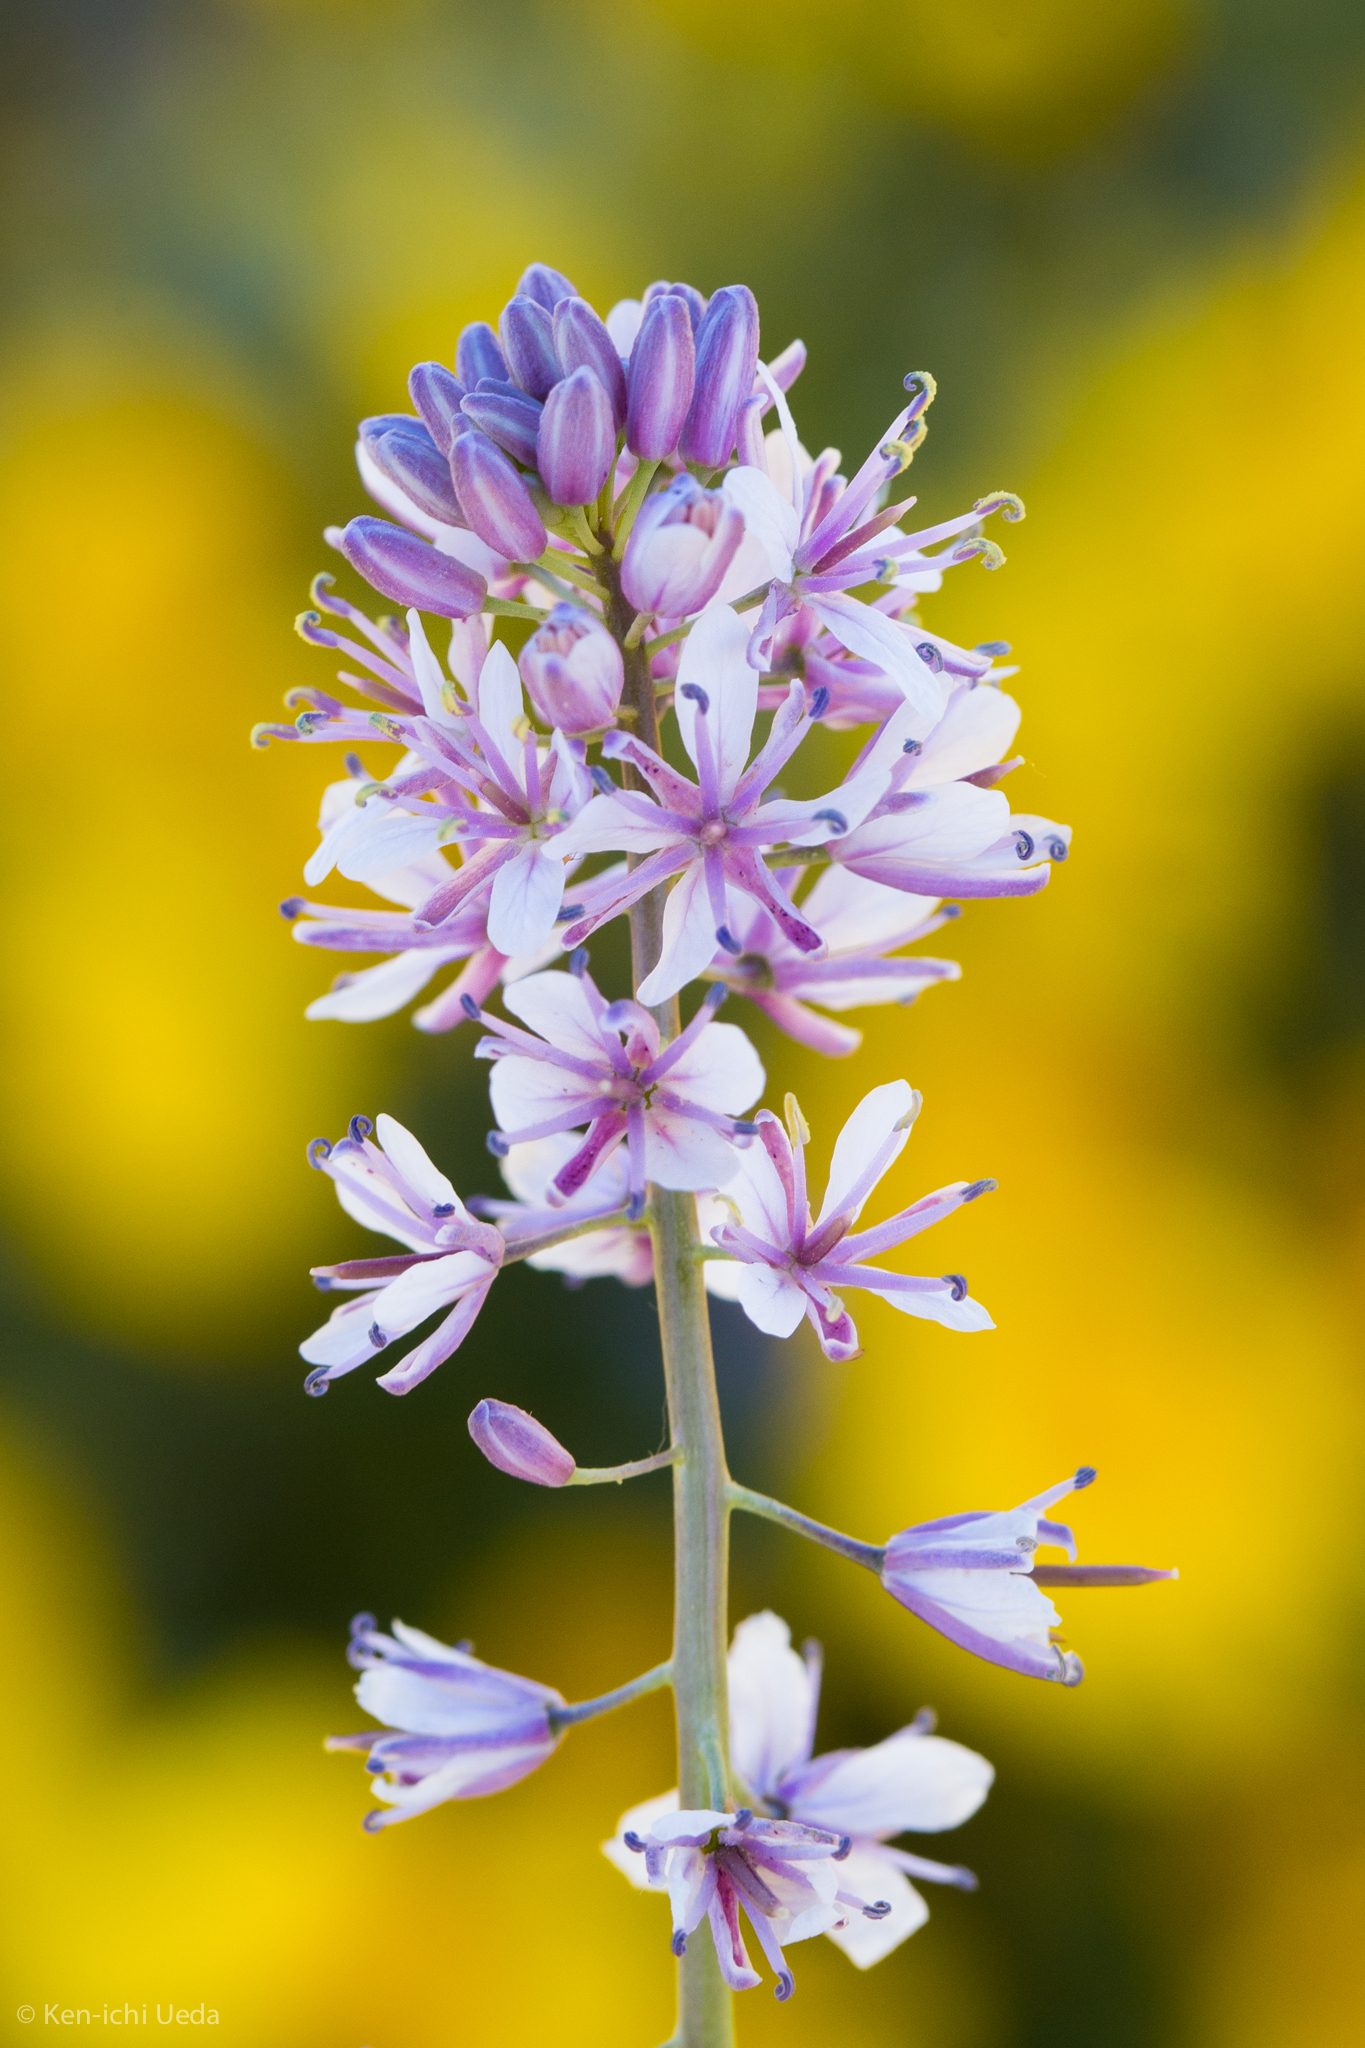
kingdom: Plantae
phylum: Tracheophyta
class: Magnoliopsida
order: Brassicales
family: Brassicaceae
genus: Streptanthus
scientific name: Streptanthus anceps
